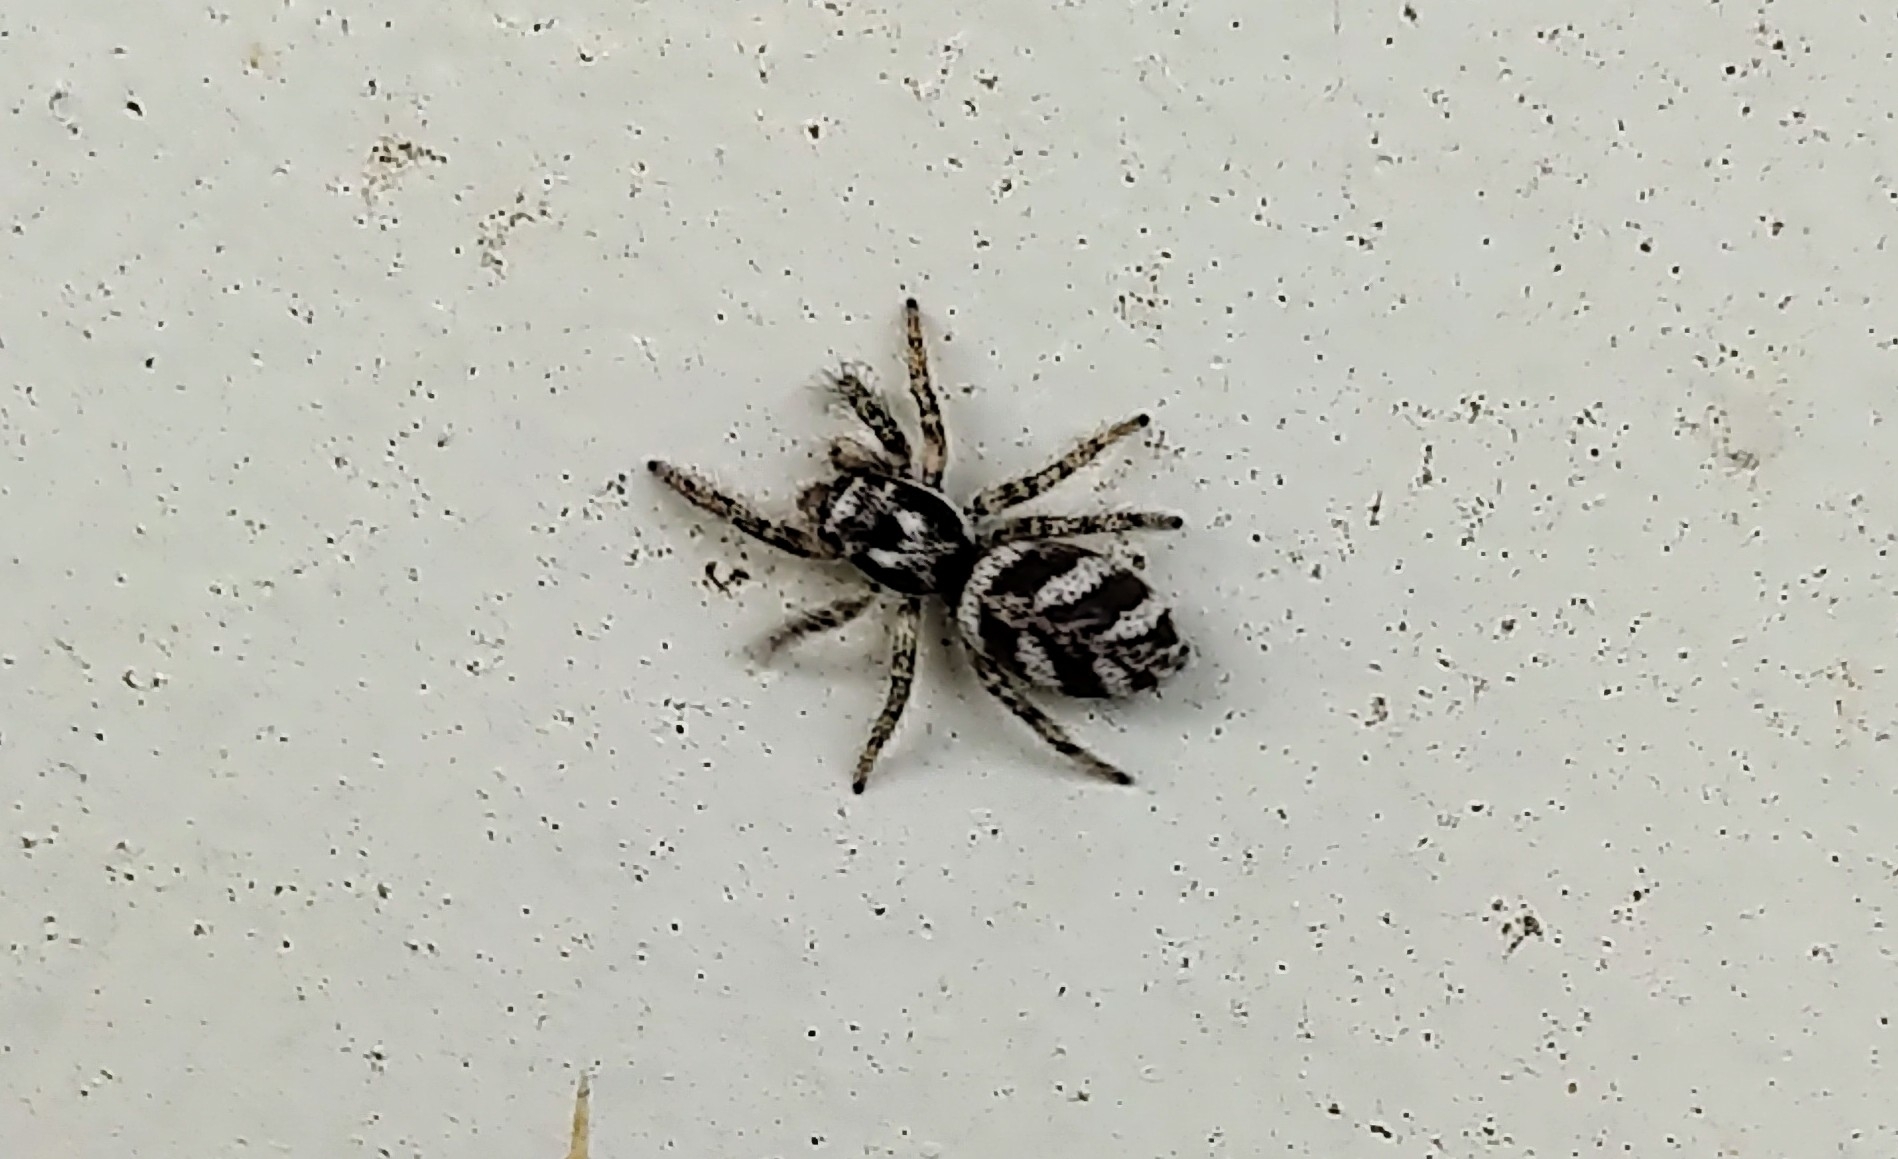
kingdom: Animalia
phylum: Arthropoda
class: Arachnida
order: Araneae
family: Salticidae
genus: Salticus
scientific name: Salticus scenicus
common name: Zebra jumper
